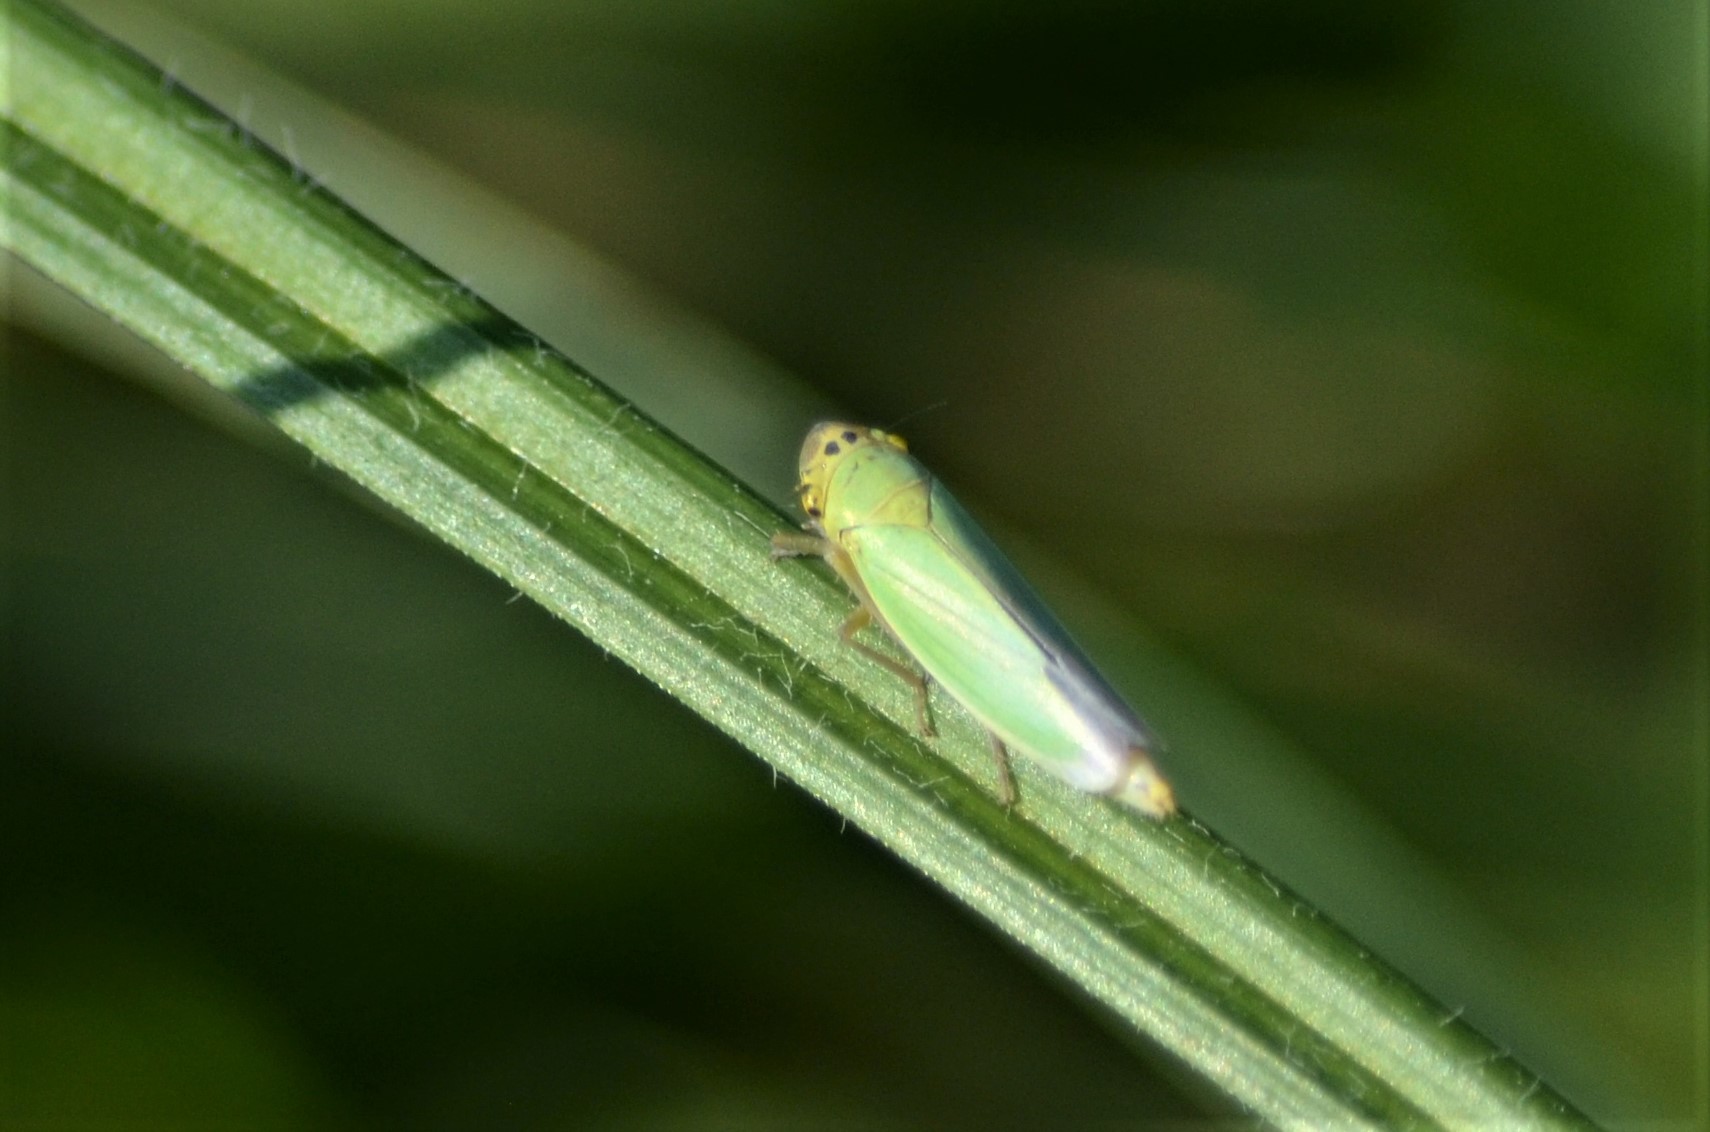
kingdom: Animalia
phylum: Arthropoda
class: Insecta
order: Hemiptera
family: Cicadellidae
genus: Cicadella
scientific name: Cicadella viridis
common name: Leafhopper
